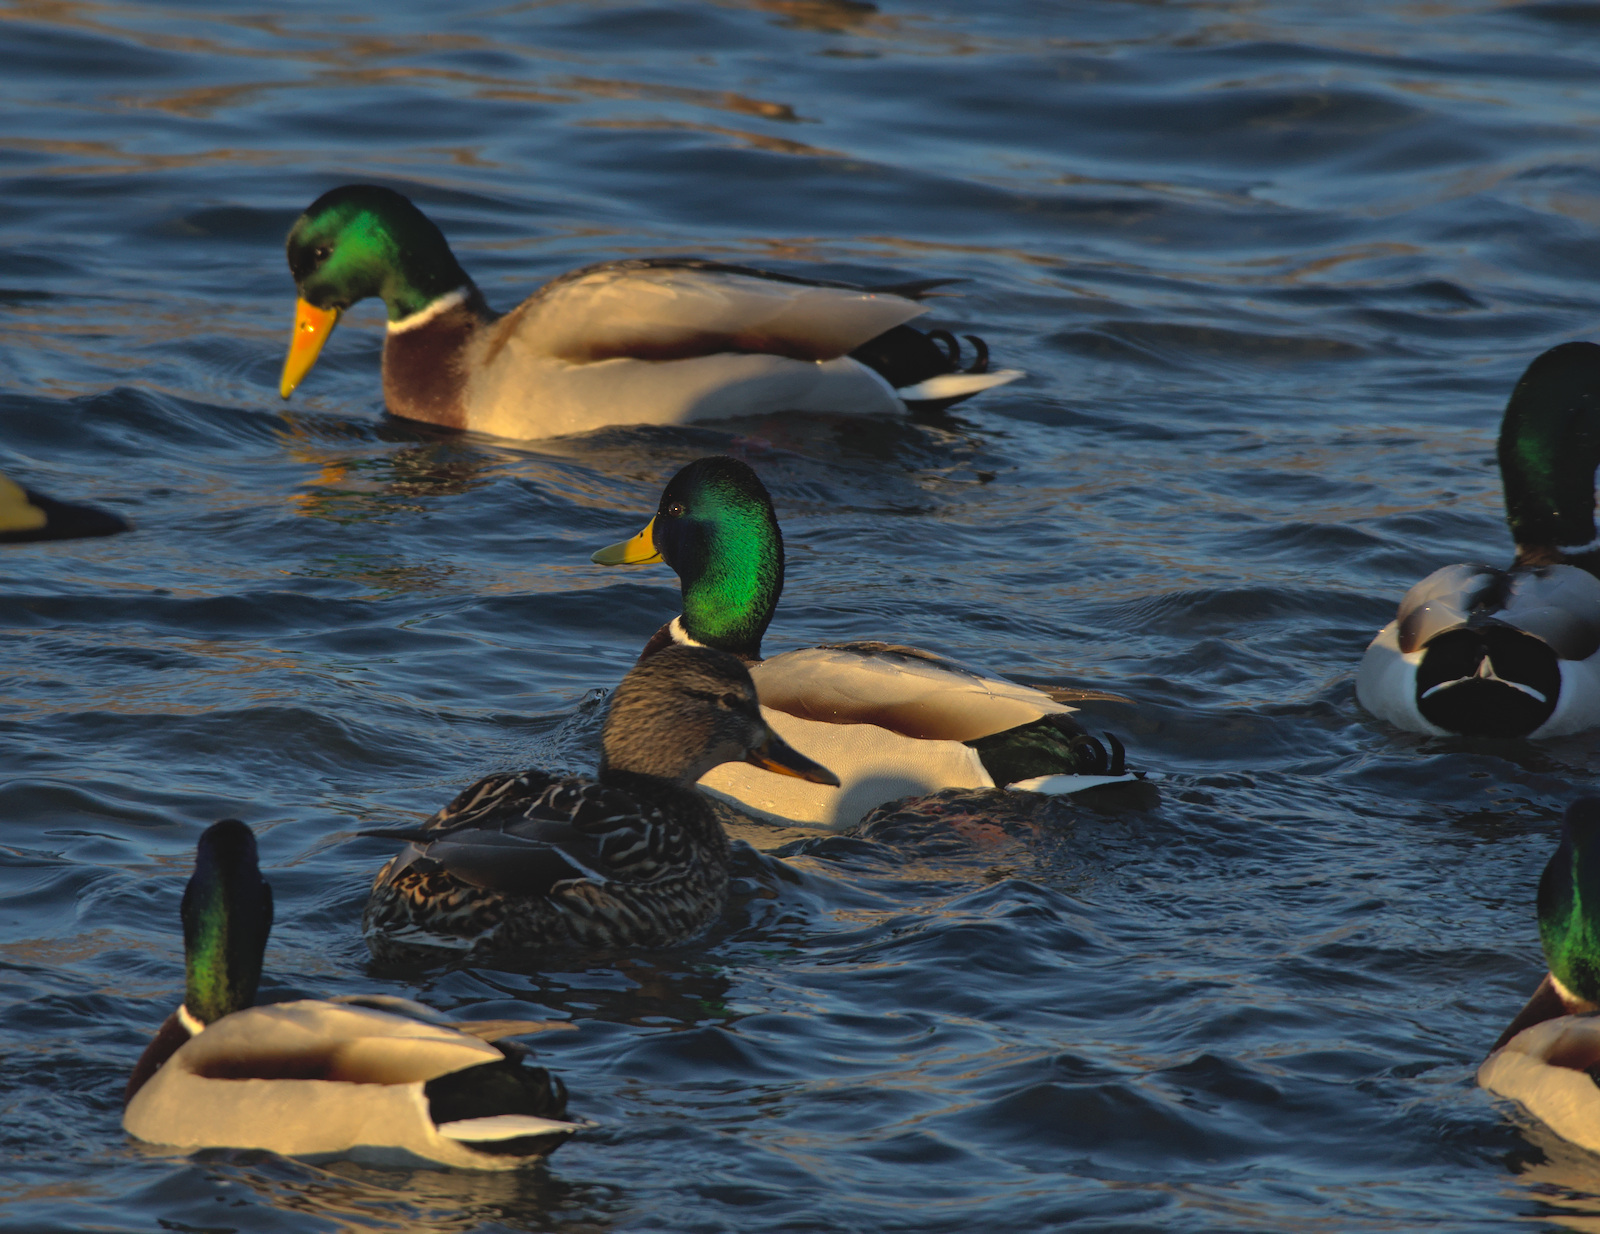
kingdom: Animalia
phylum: Chordata
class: Aves
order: Anseriformes
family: Anatidae
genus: Anas
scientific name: Anas platyrhynchos
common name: Mallard
